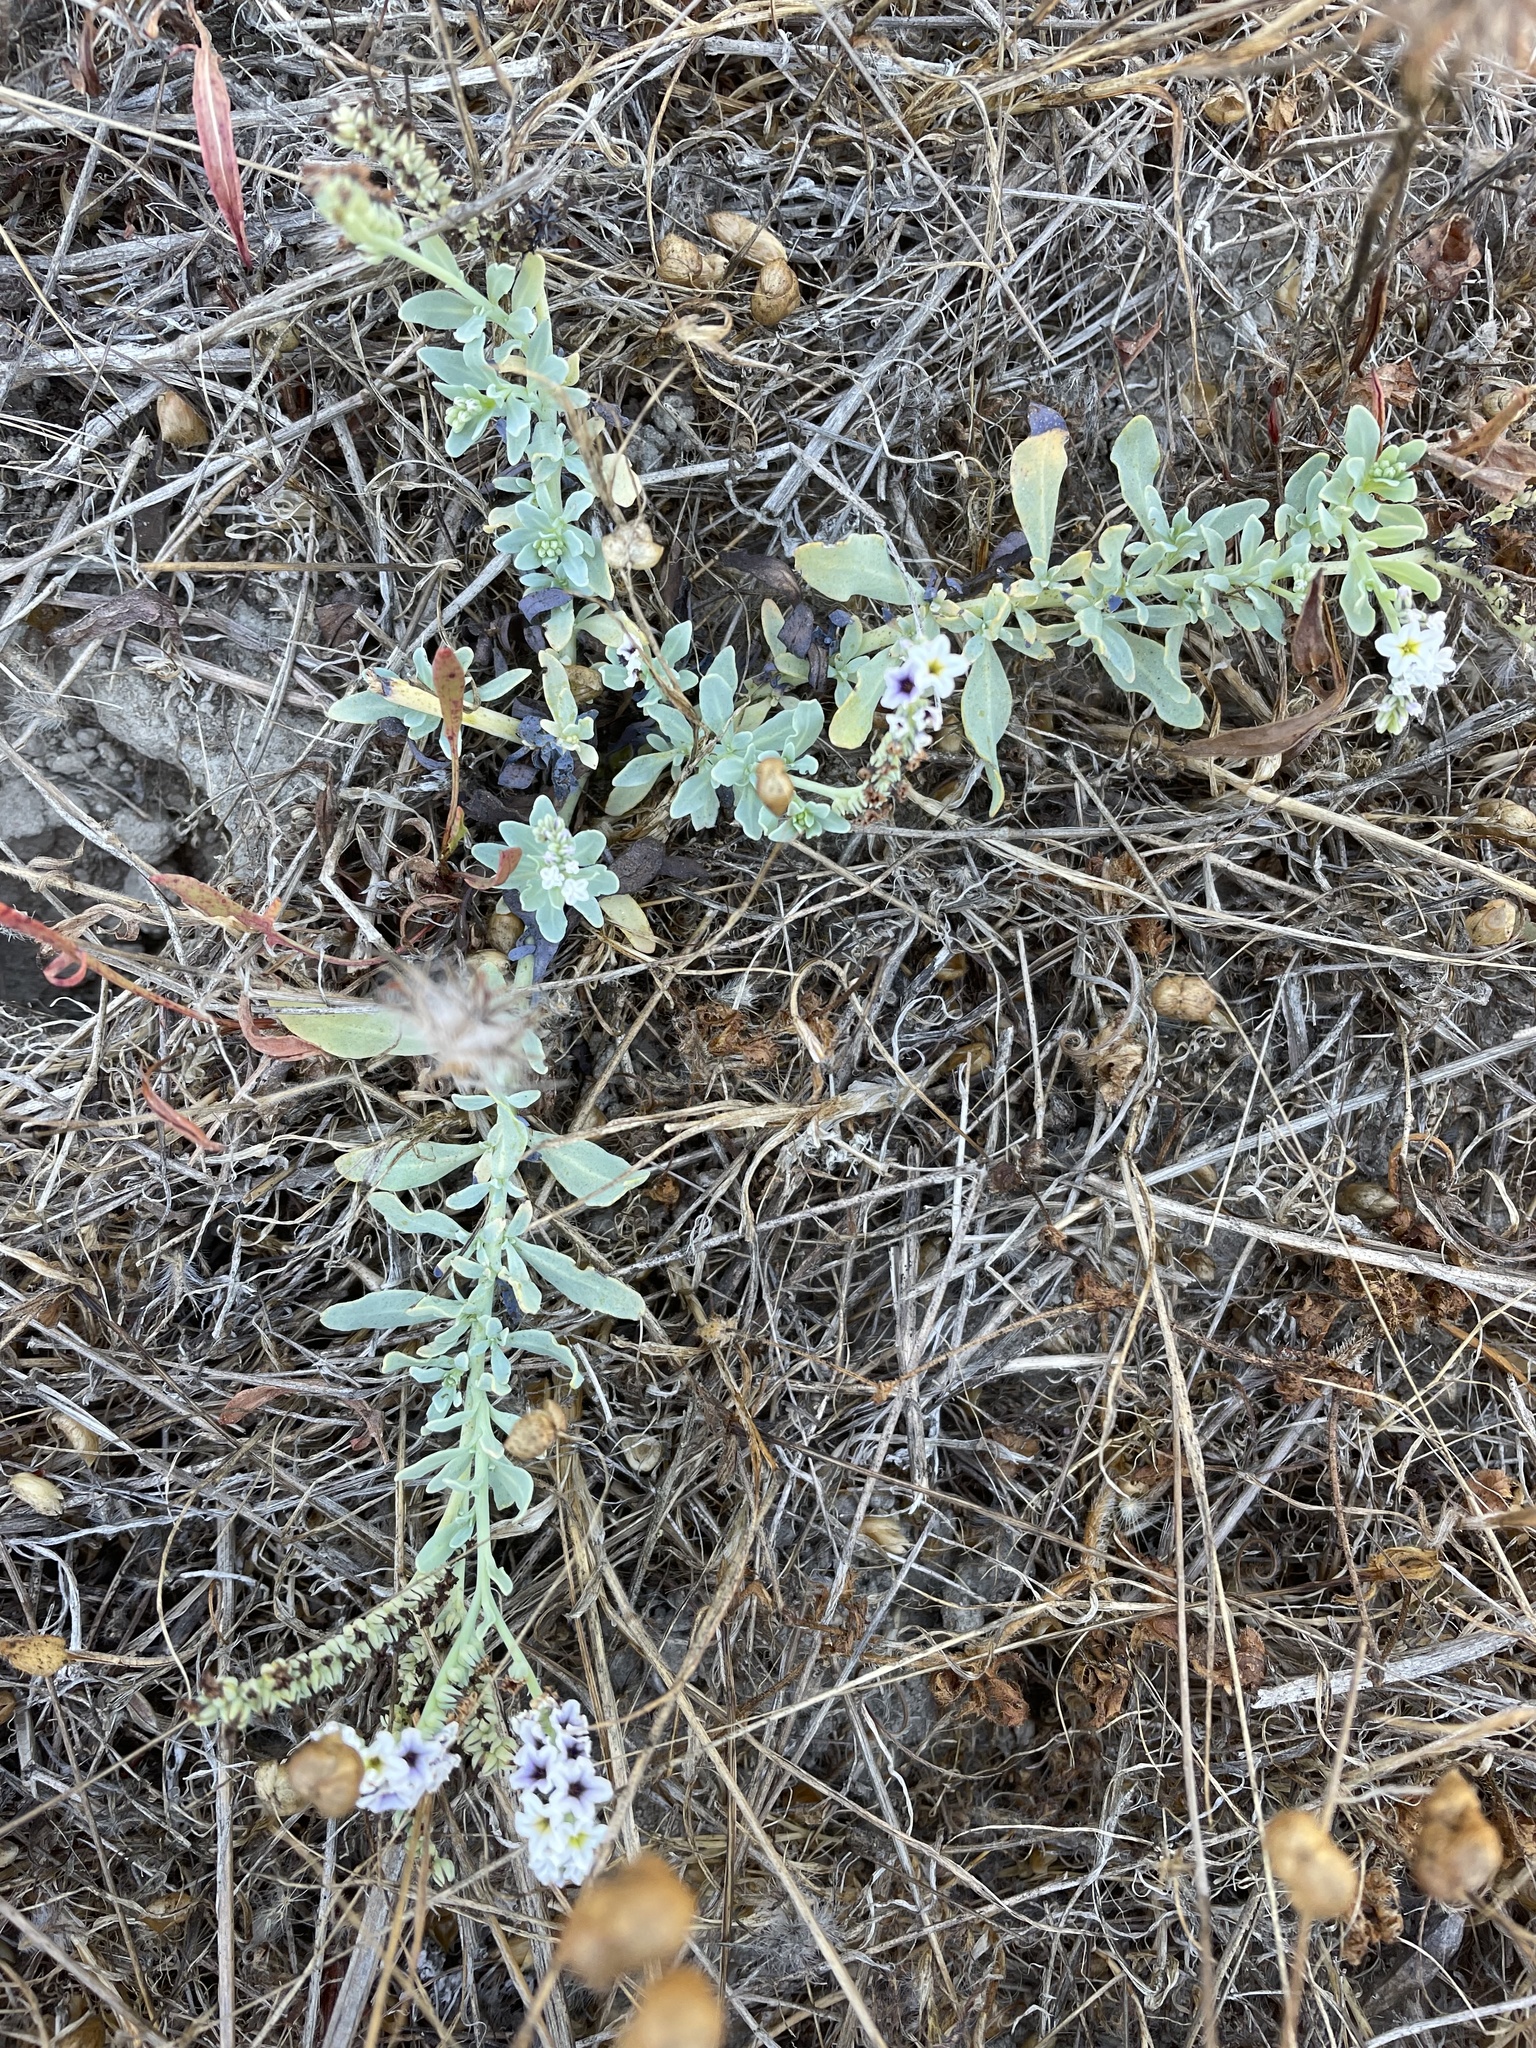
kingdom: Plantae
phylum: Tracheophyta
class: Magnoliopsida
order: Boraginales
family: Heliotropiaceae
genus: Heliotropium
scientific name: Heliotropium curassavicum
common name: Seaside heliotrope
